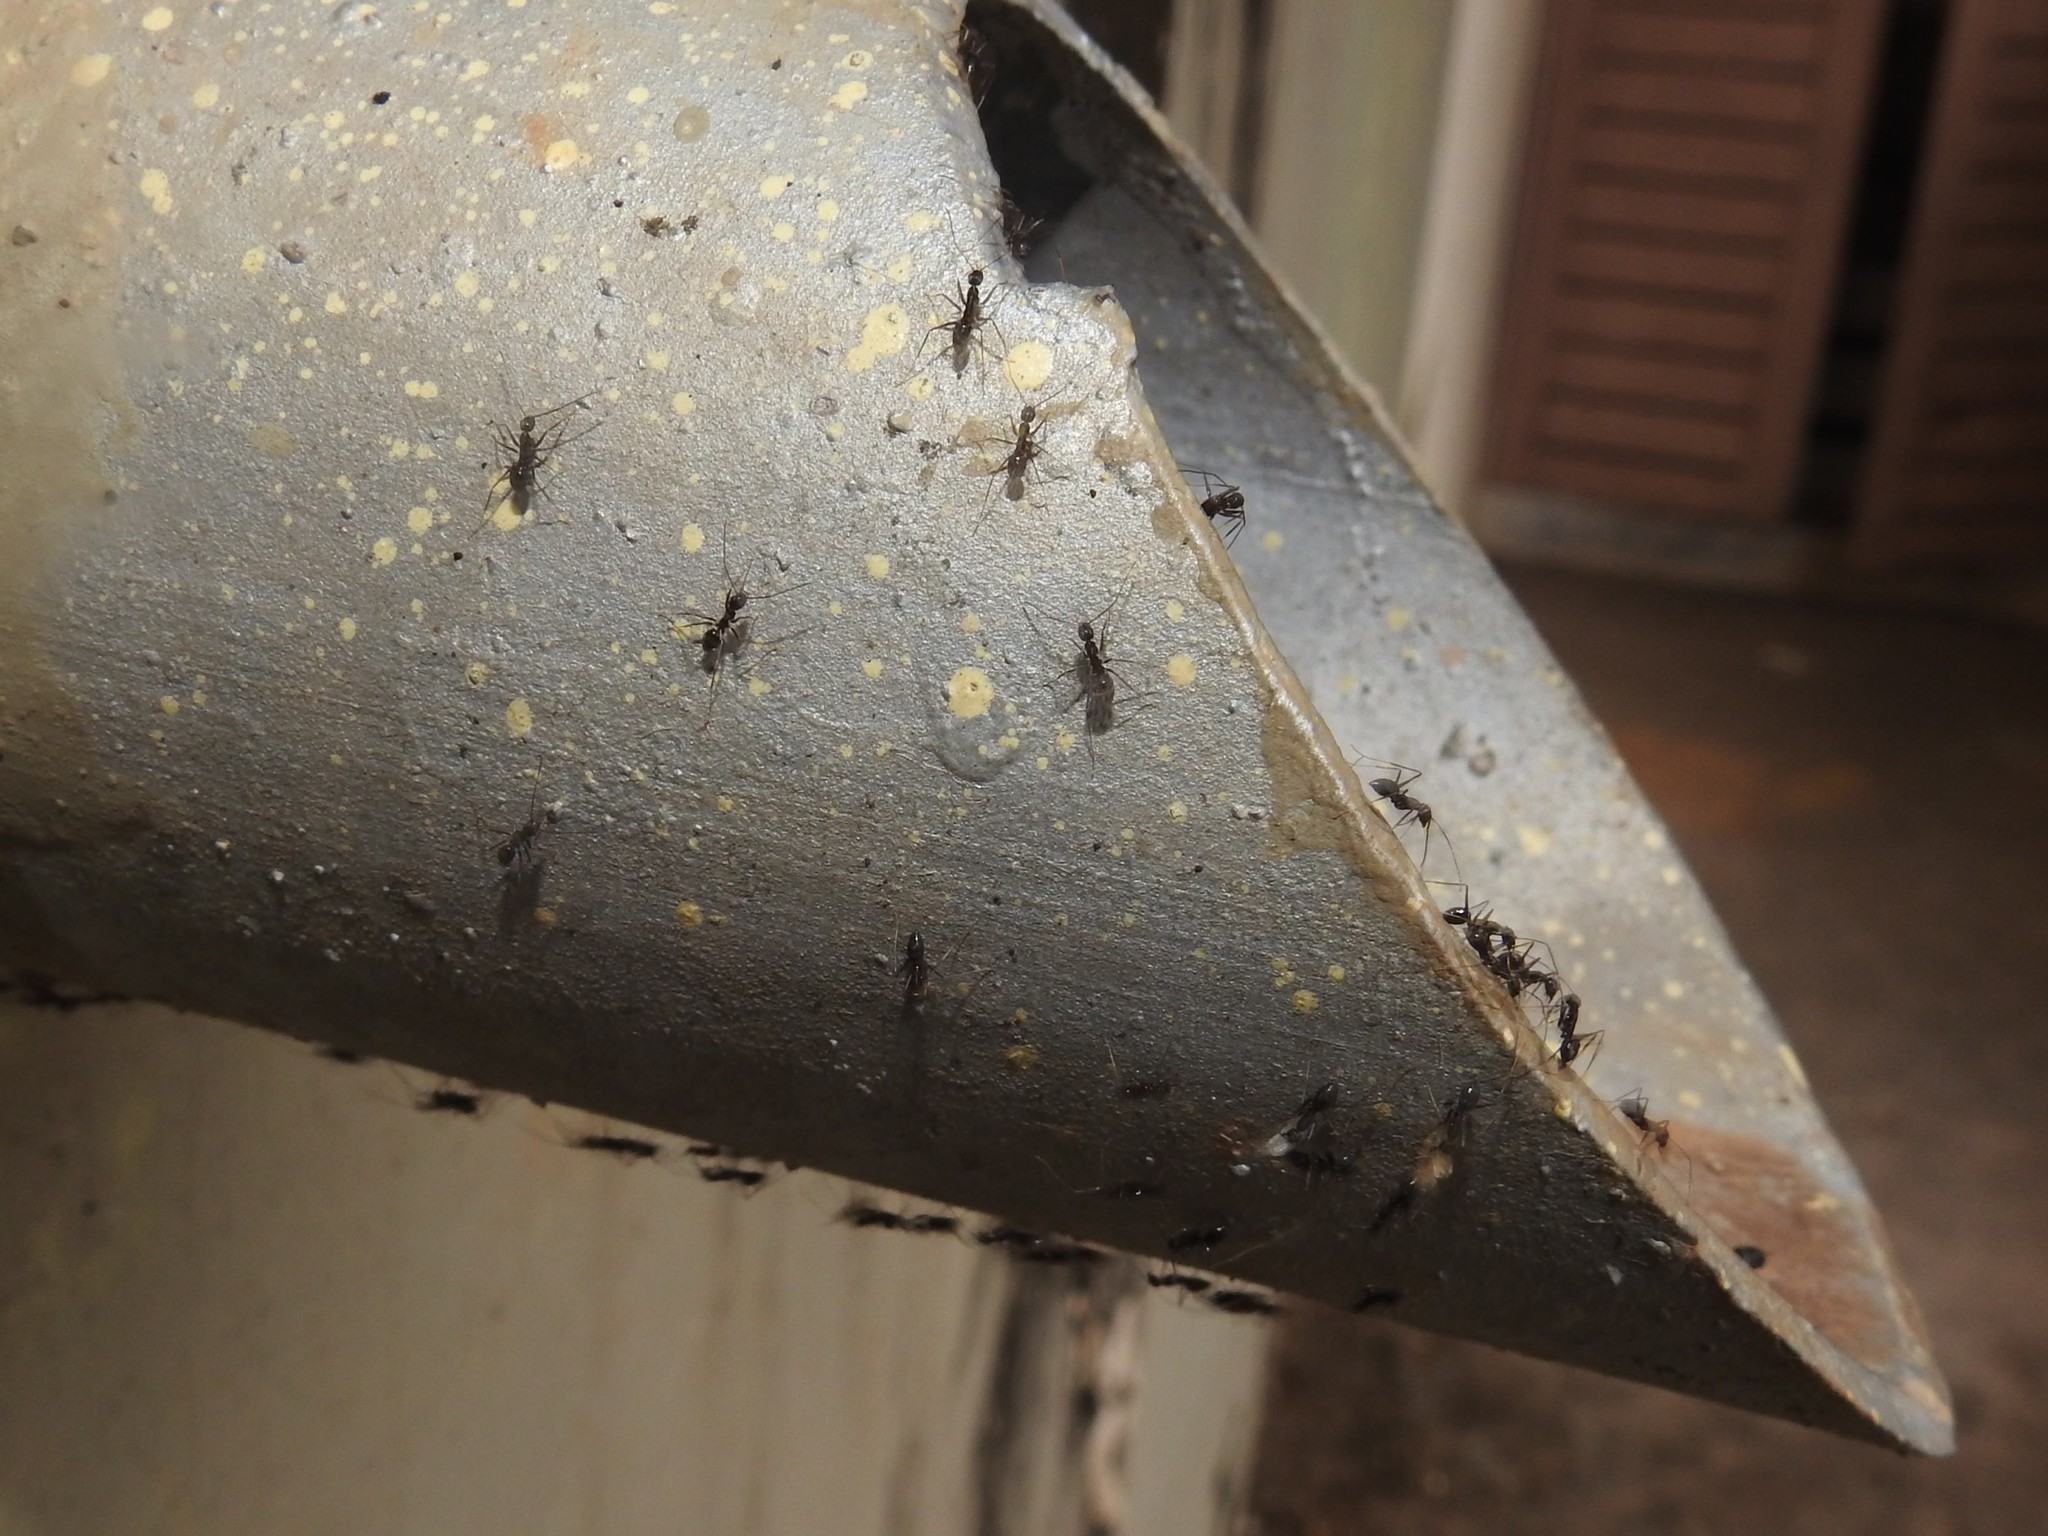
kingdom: Animalia
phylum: Arthropoda
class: Insecta
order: Hymenoptera
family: Formicidae
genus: Paratrechina
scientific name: Paratrechina longicornis
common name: Longhorned crazy ant
